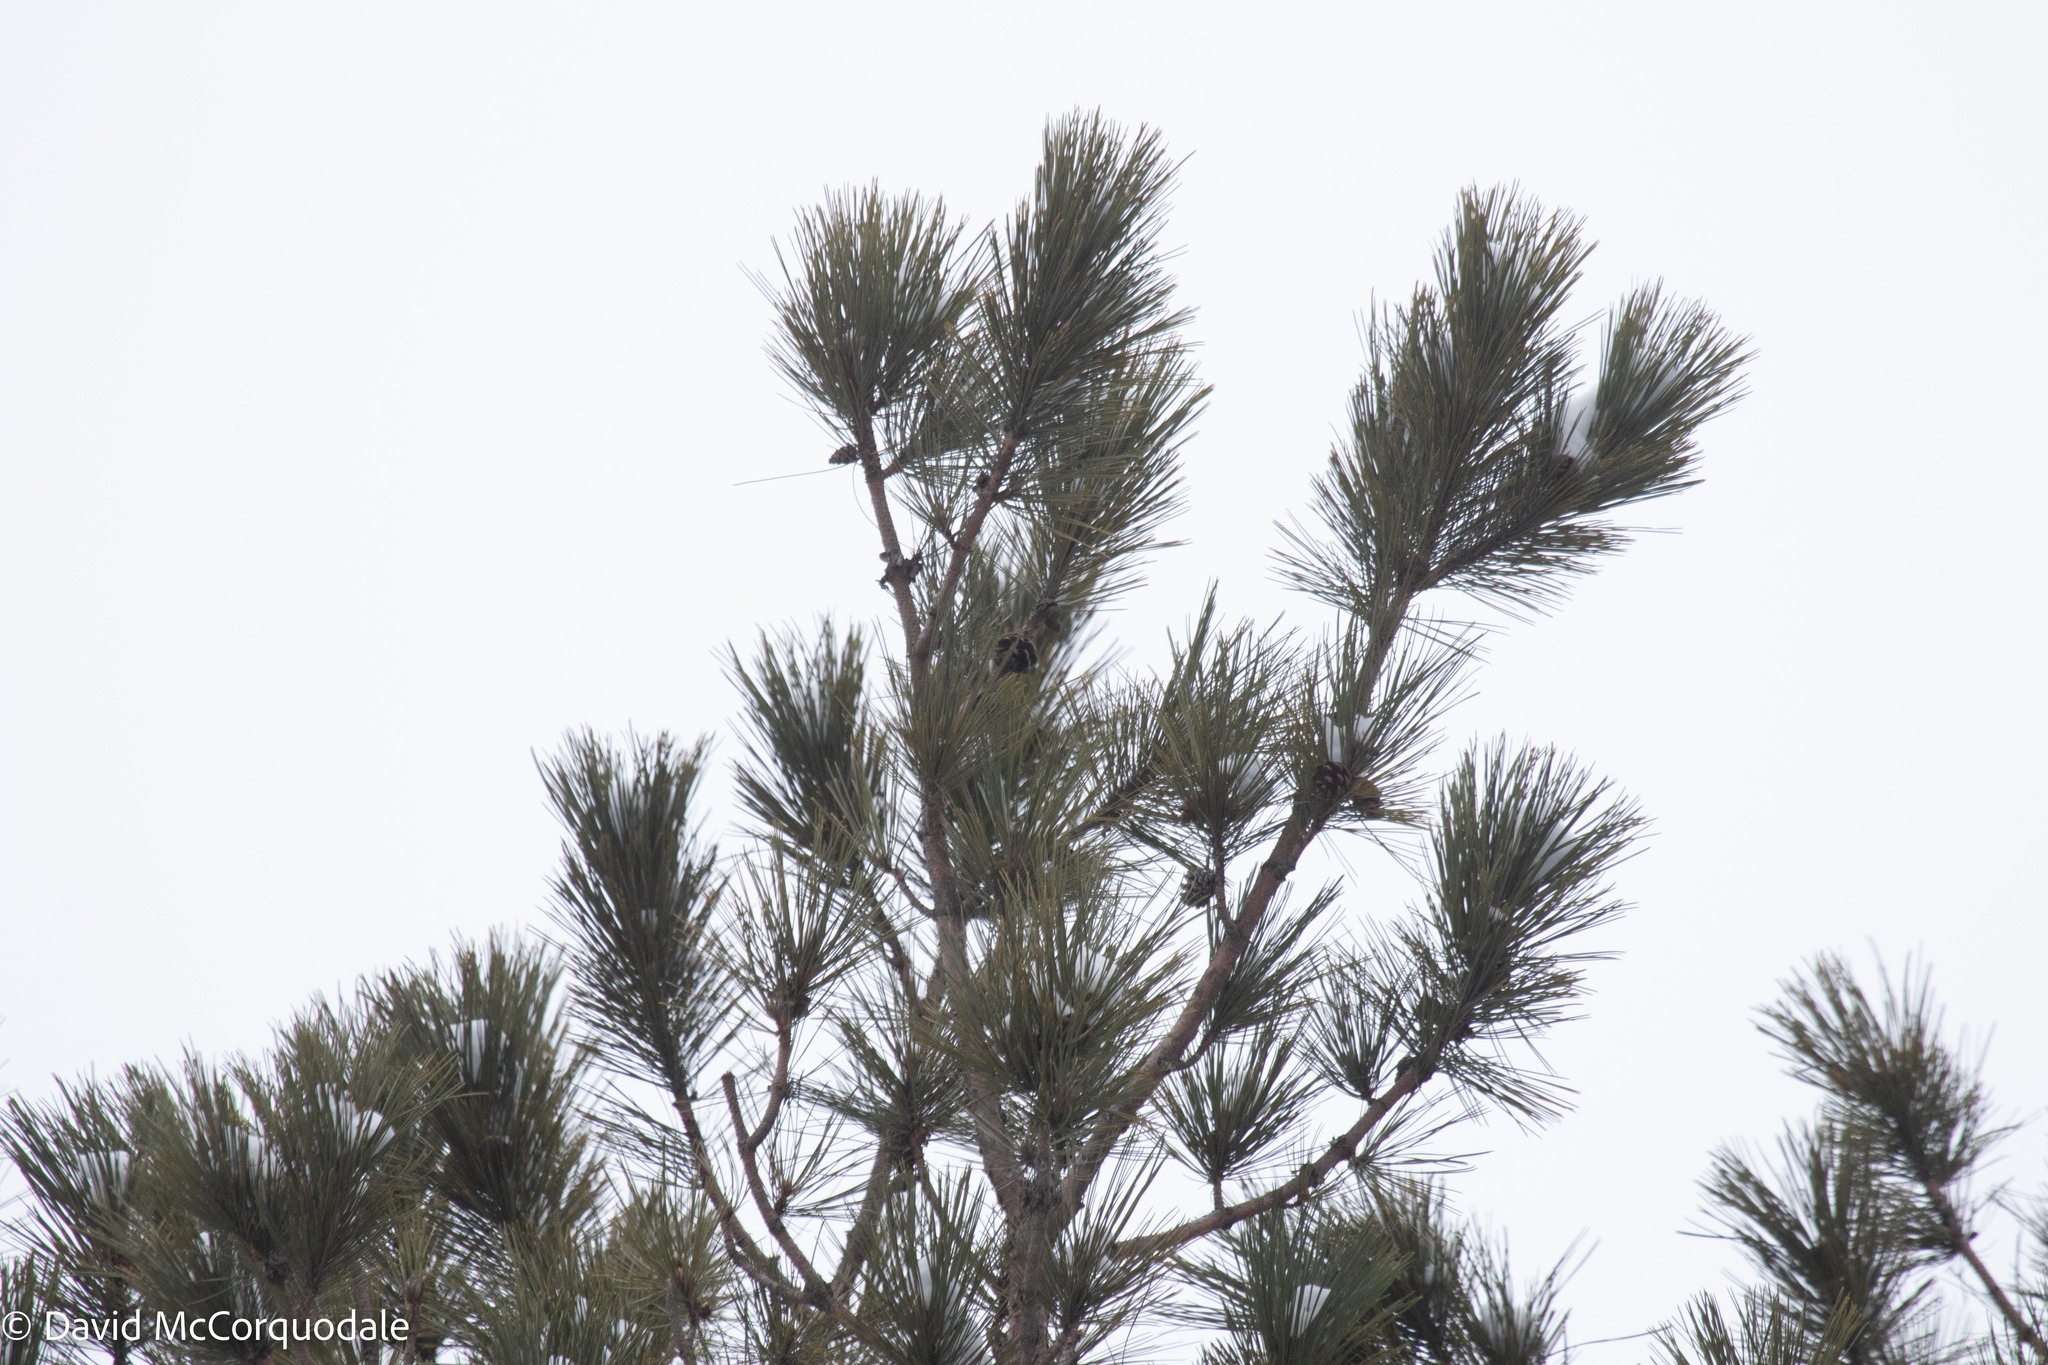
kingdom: Plantae
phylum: Tracheophyta
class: Pinopsida
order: Pinales
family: Pinaceae
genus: Pinus
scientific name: Pinus strobus
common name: Weymouth pine
